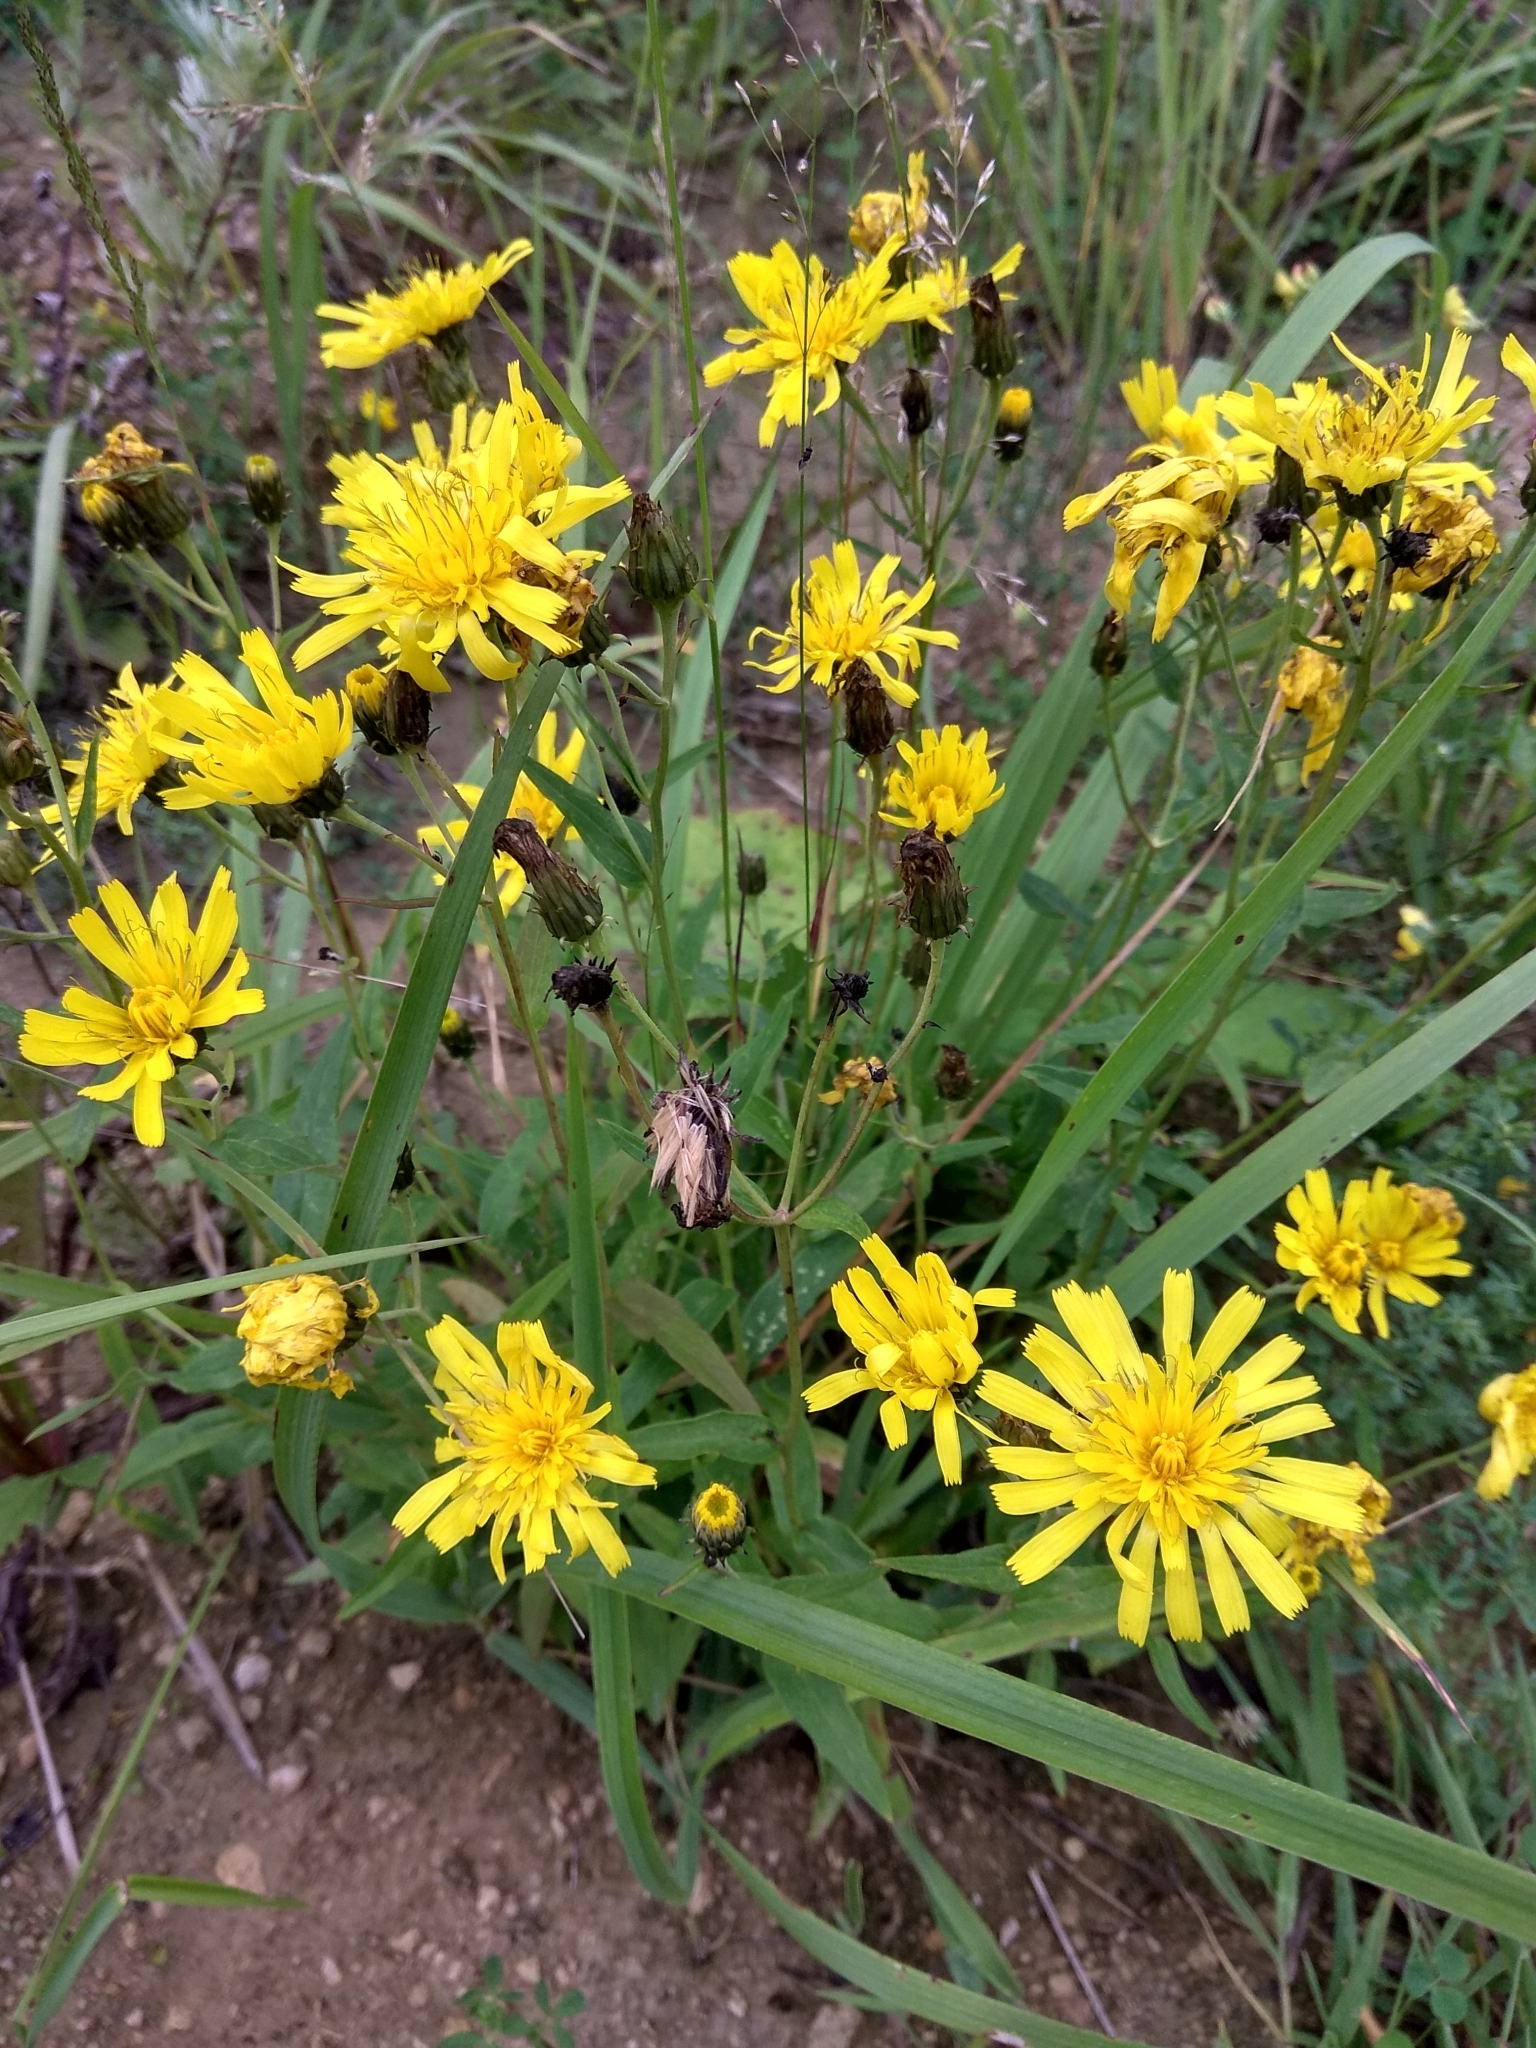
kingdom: Plantae
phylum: Tracheophyta
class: Magnoliopsida
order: Asterales
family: Asteraceae
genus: Hieracium
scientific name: Hieracium umbellatum
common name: Northern hawkweed
